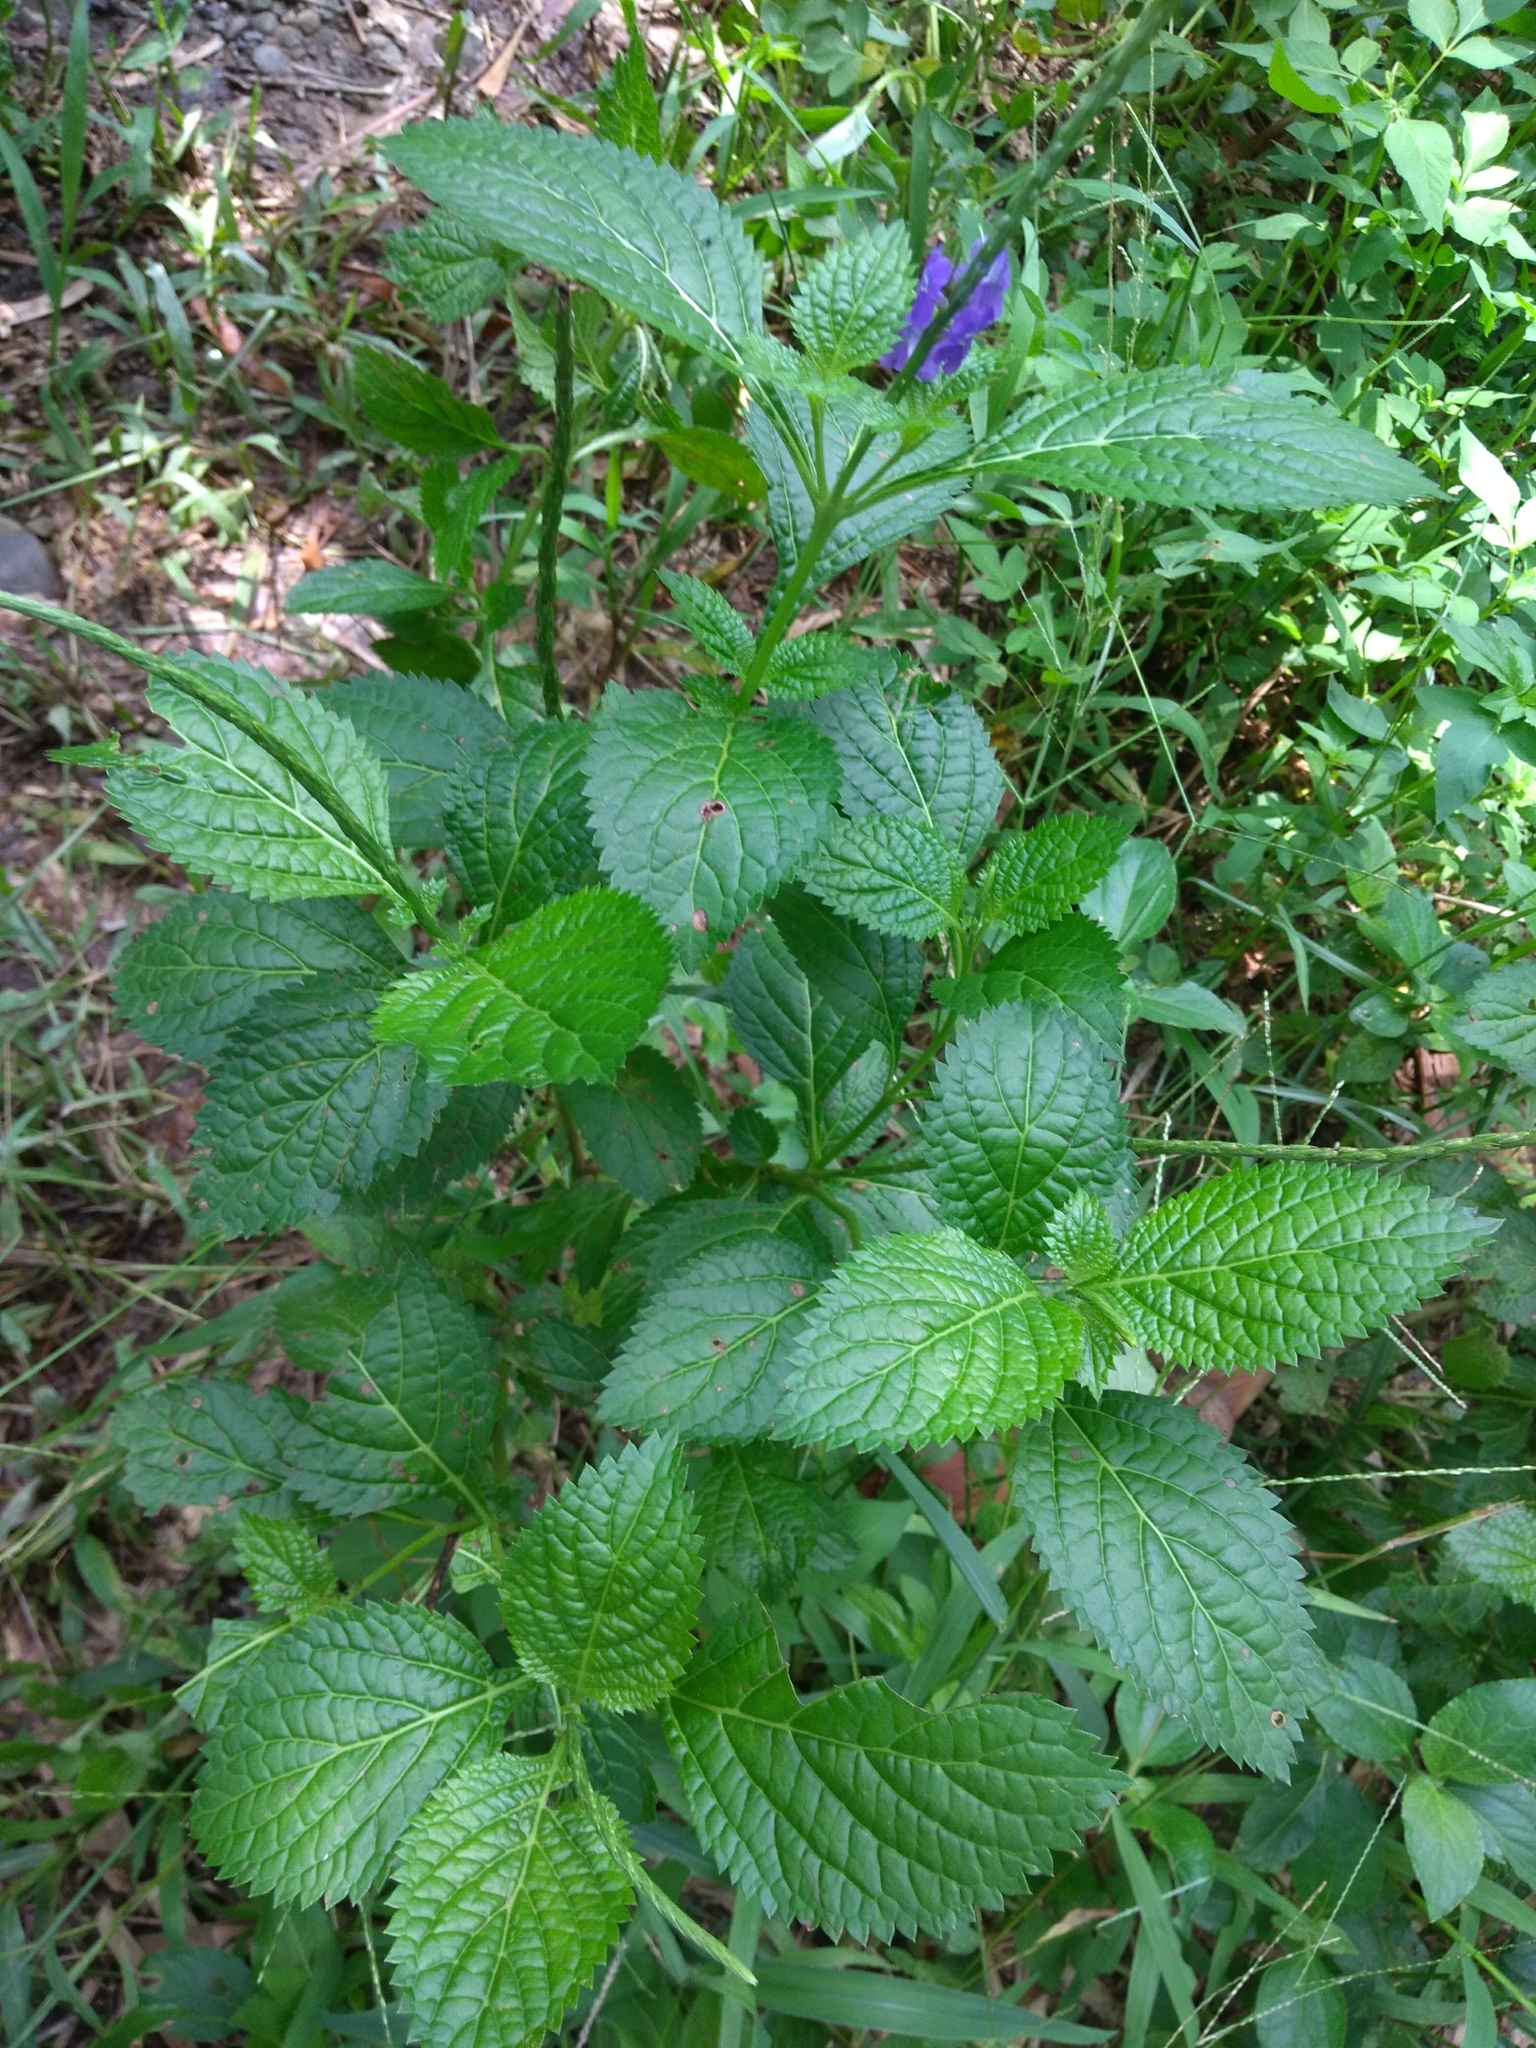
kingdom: Plantae
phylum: Tracheophyta
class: Magnoliopsida
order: Lamiales
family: Verbenaceae
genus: Stachytarpheta
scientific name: Stachytarpheta urticifolia
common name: Nettleleaf velvetberry
